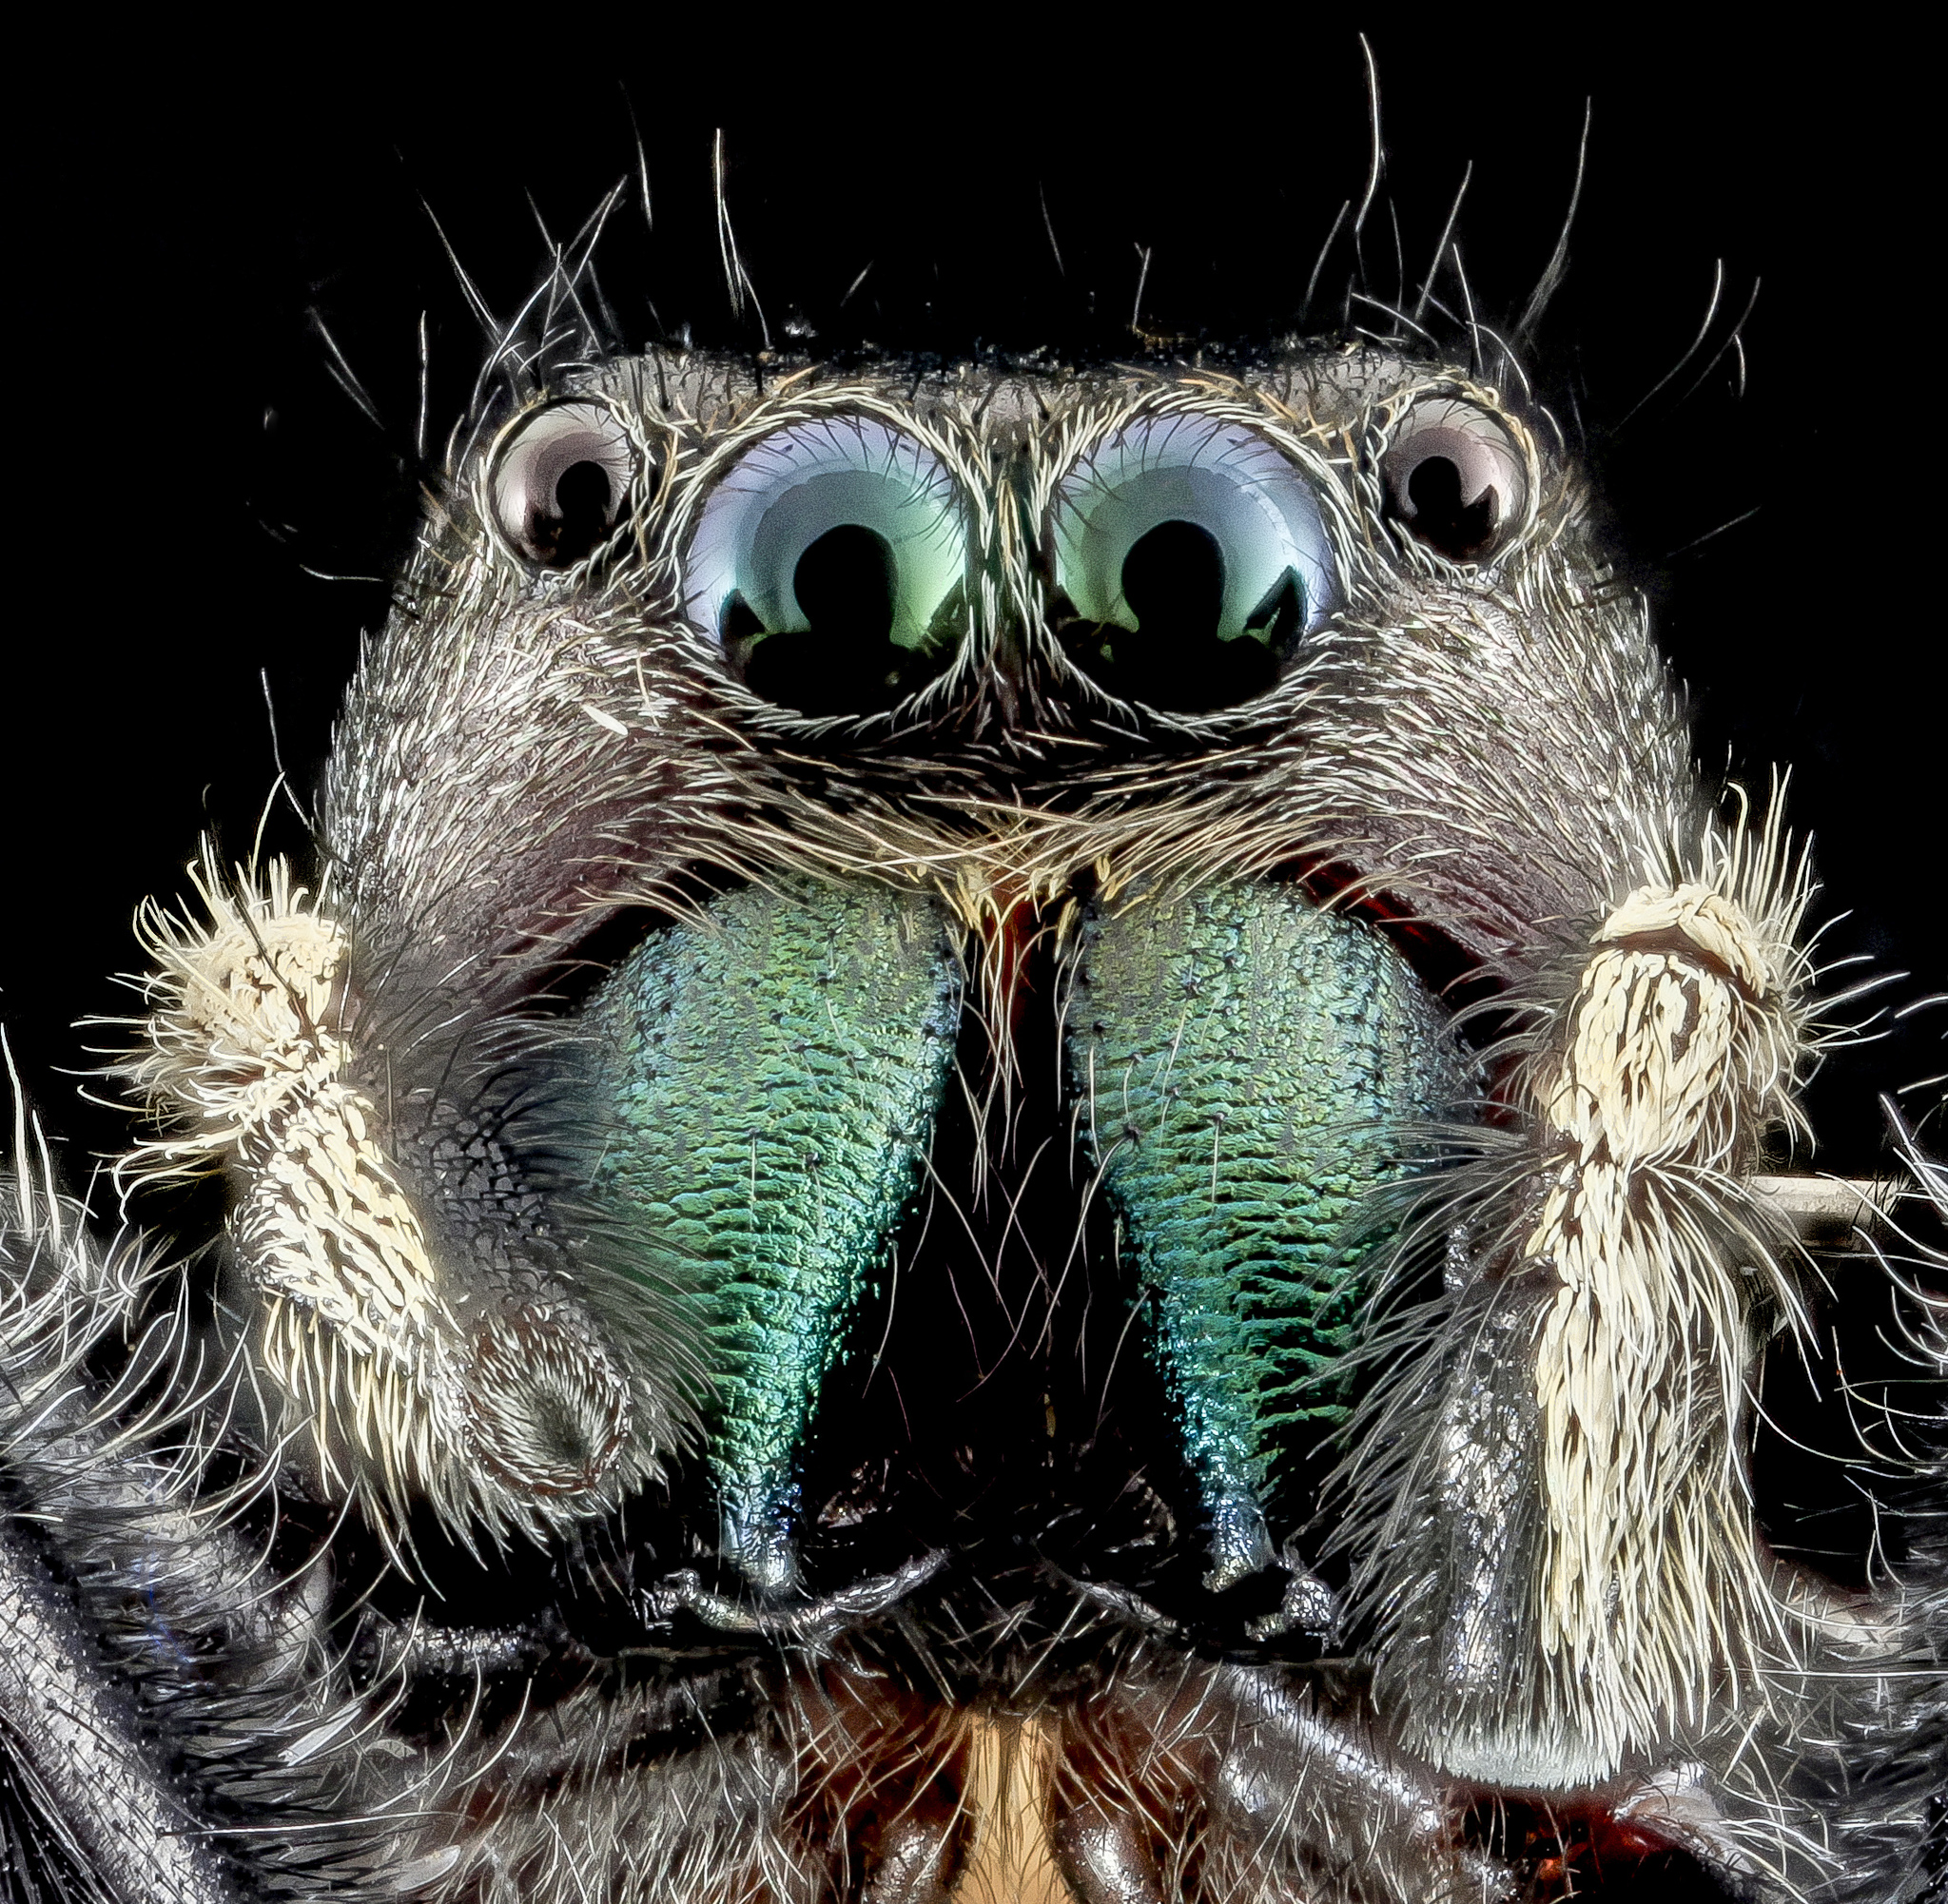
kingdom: Animalia
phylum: Arthropoda
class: Arachnida
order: Araneae
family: Salticidae
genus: Phidippus
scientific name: Phidippus clarus
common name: Brilliant jumping spider
